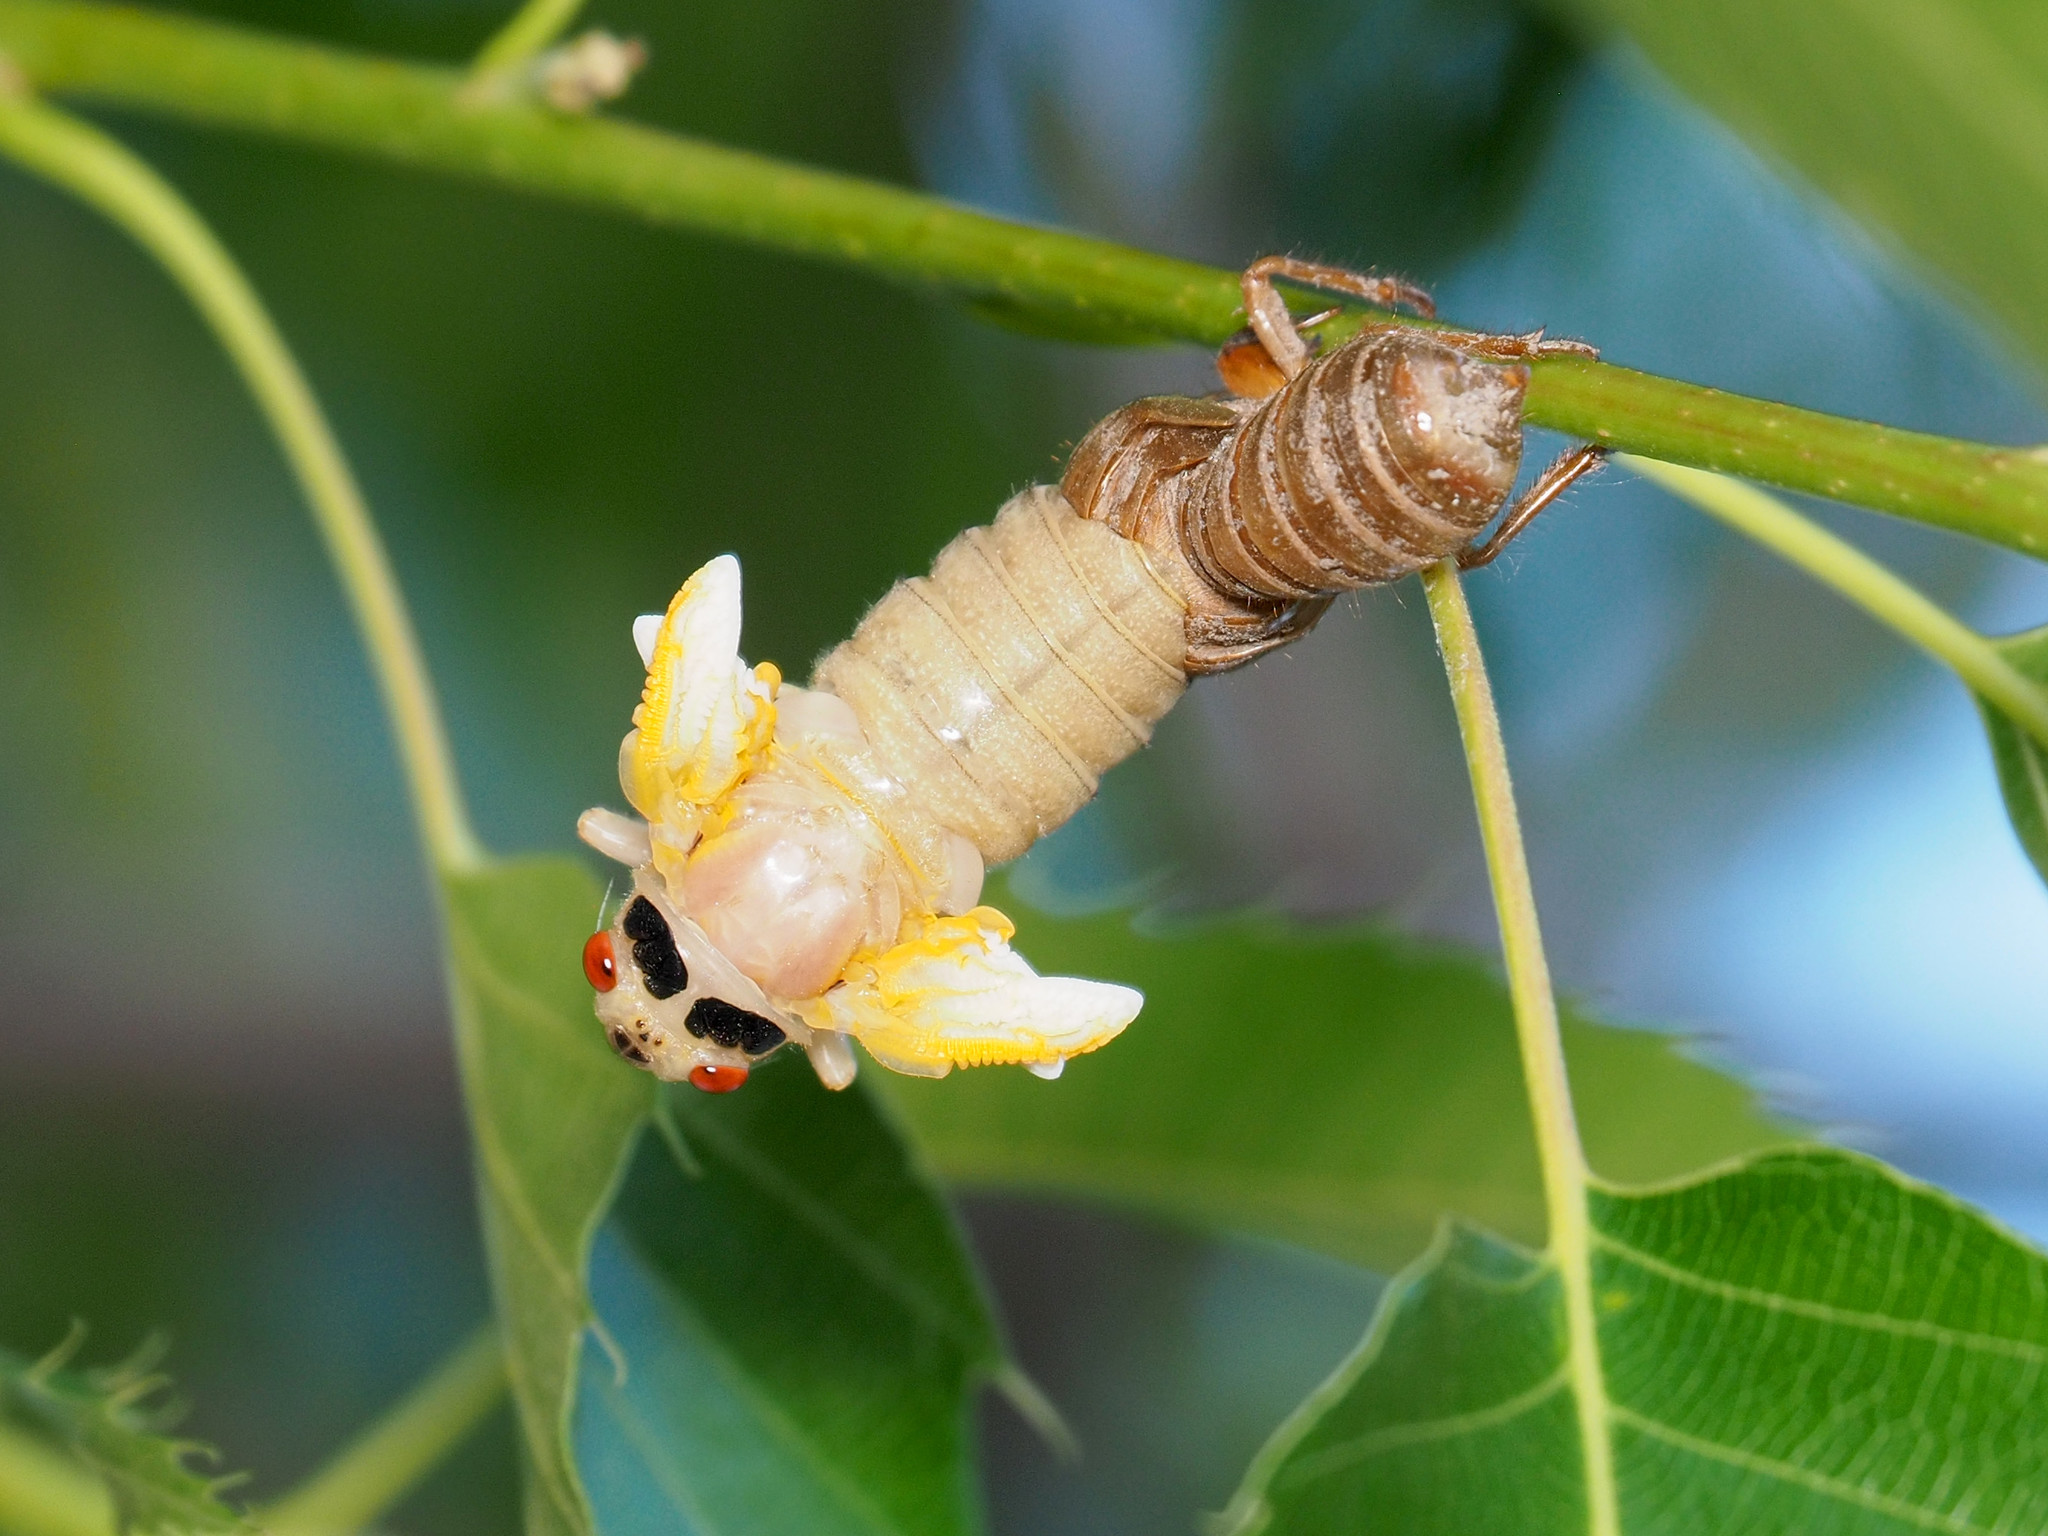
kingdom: Animalia
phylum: Arthropoda
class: Insecta
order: Hemiptera
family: Cicadidae
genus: Magicicada
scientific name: Magicicada
